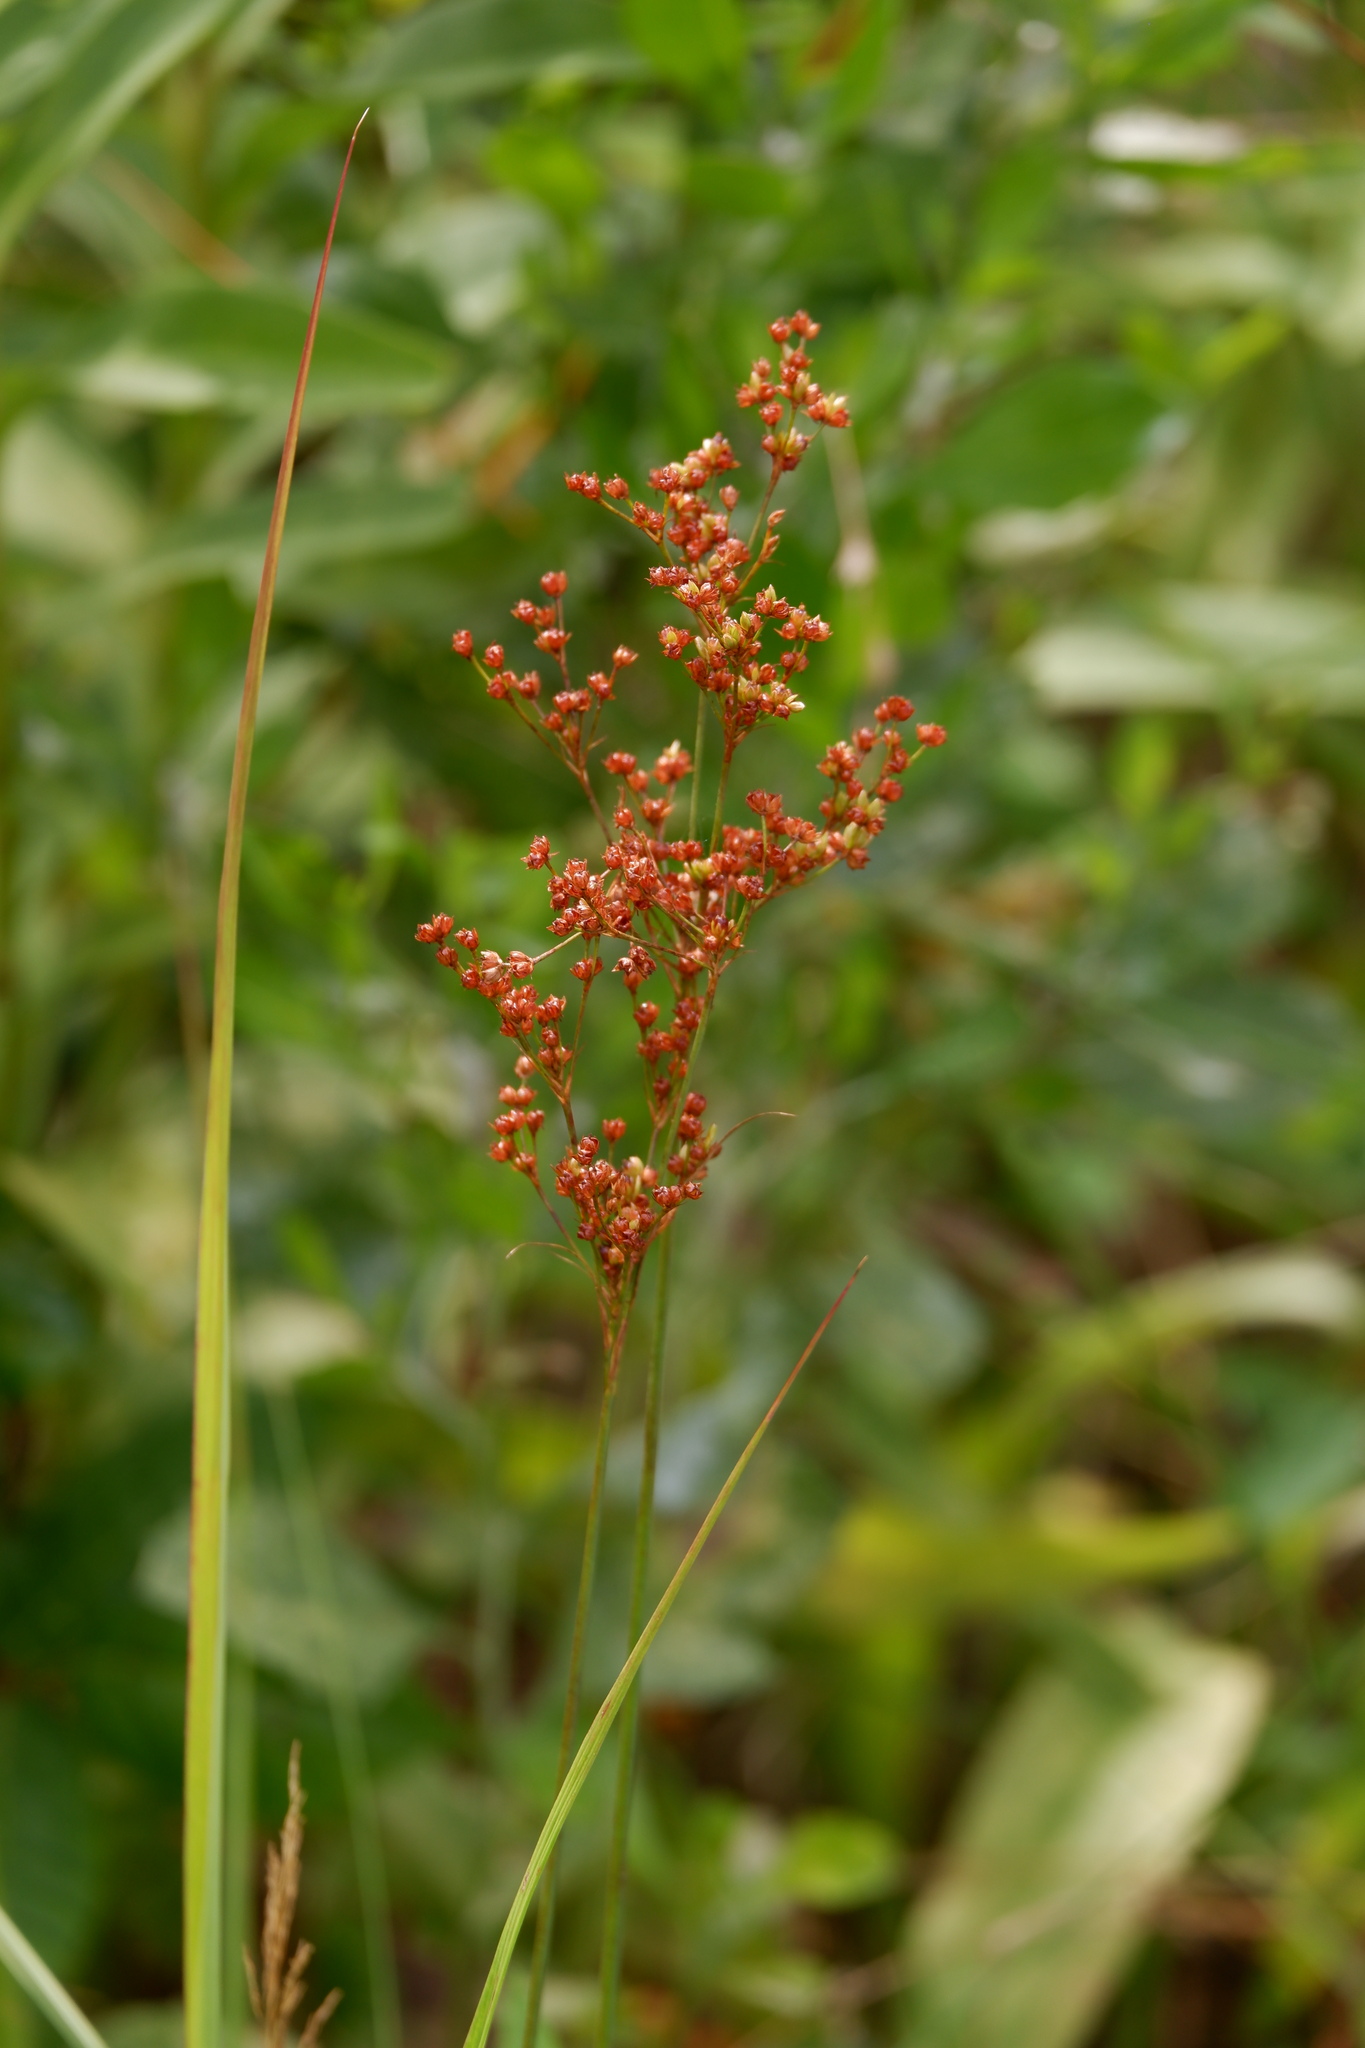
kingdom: Plantae
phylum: Tracheophyta
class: Liliopsida
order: Poales
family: Juncaceae
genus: Juncus
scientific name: Juncus marginatus
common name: Grass-leaf rush
